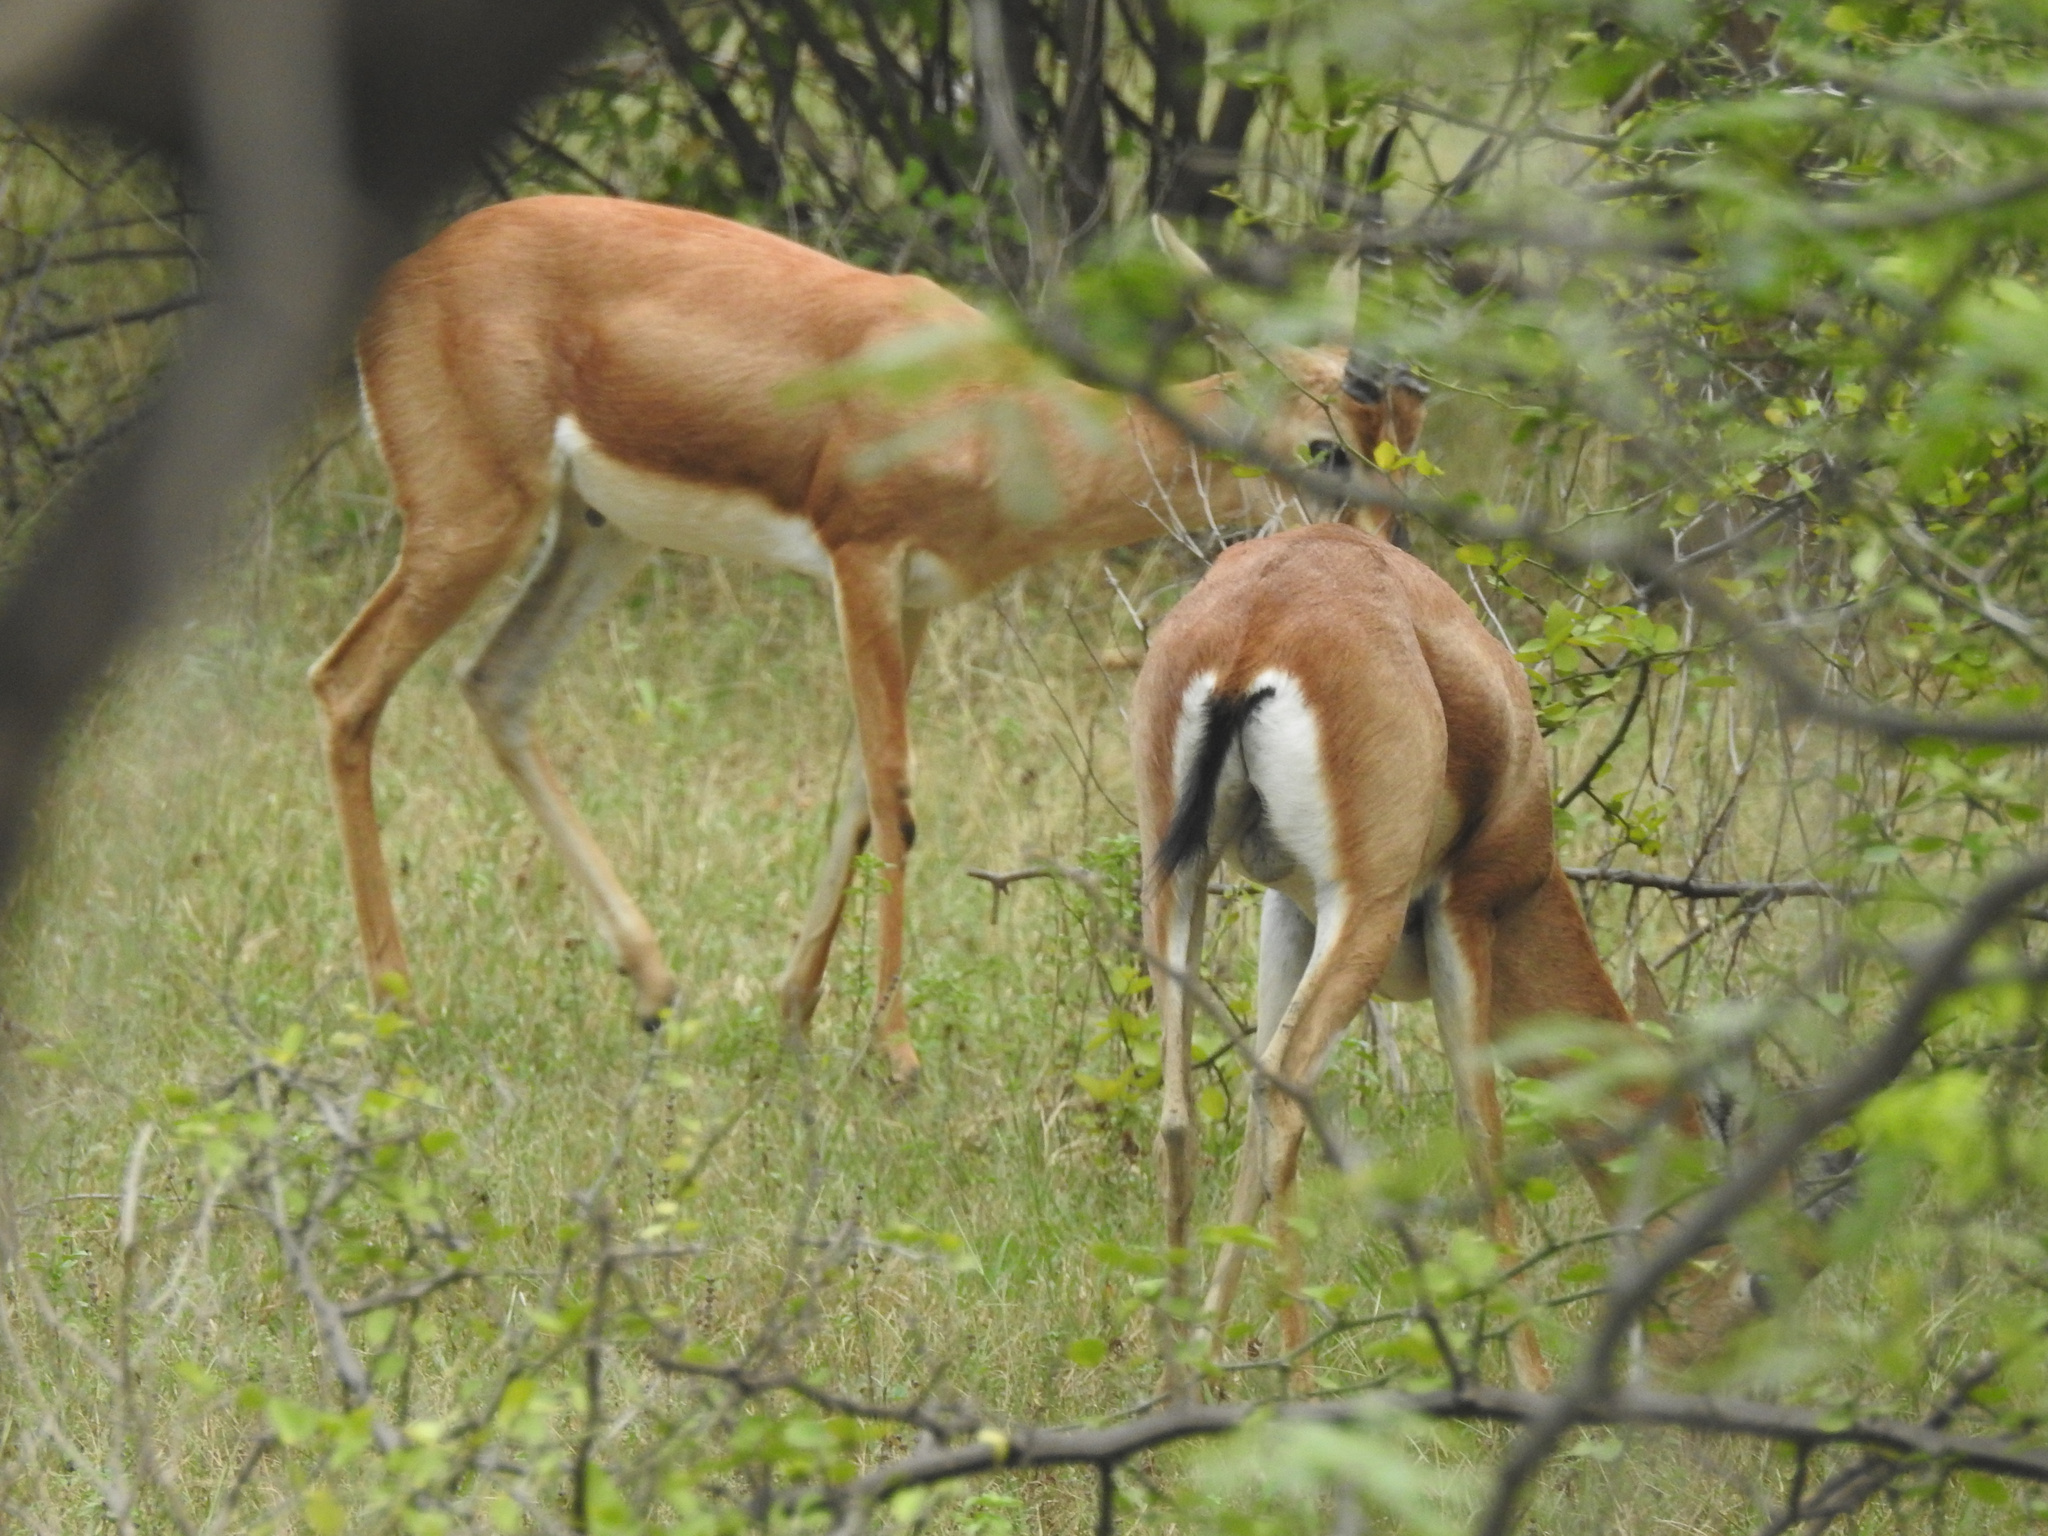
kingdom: Animalia
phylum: Chordata
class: Mammalia
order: Artiodactyla
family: Bovidae
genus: Gazella
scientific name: Gazella bennettii
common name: Indian gazelle
